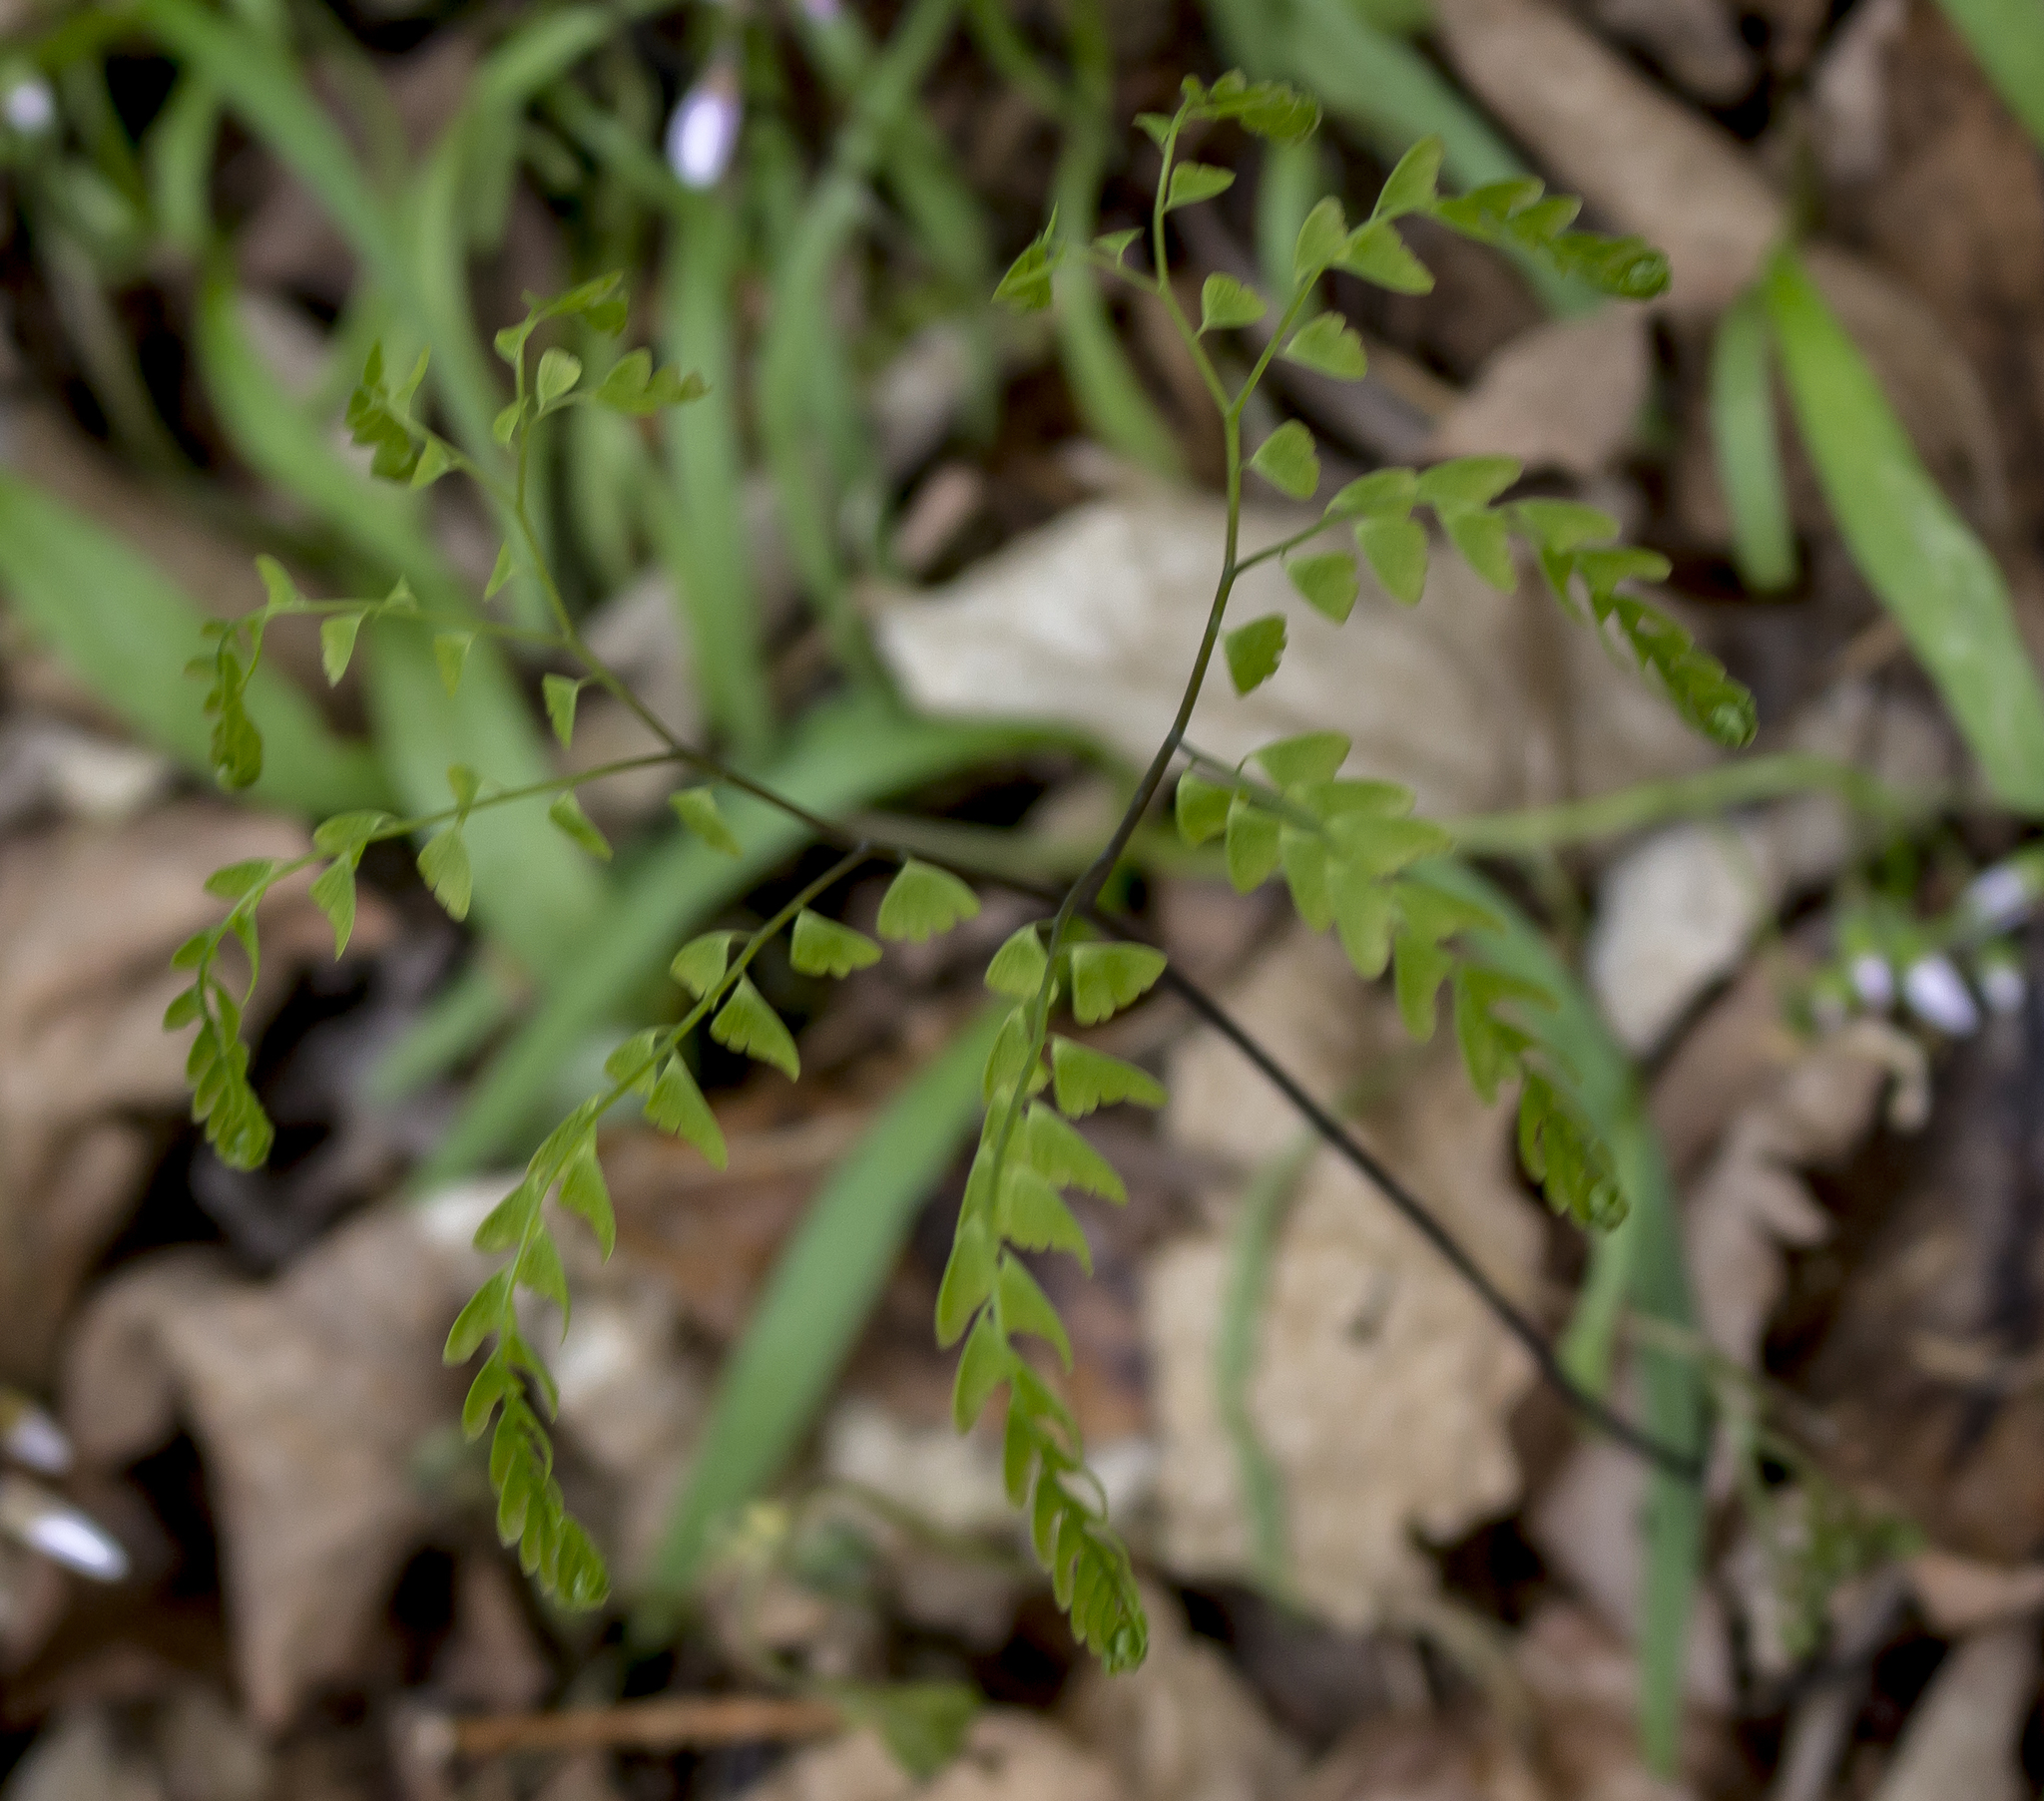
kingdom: Plantae
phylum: Tracheophyta
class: Polypodiopsida
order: Polypodiales
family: Pteridaceae
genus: Adiantum
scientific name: Adiantum pedatum
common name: Five-finger fern
